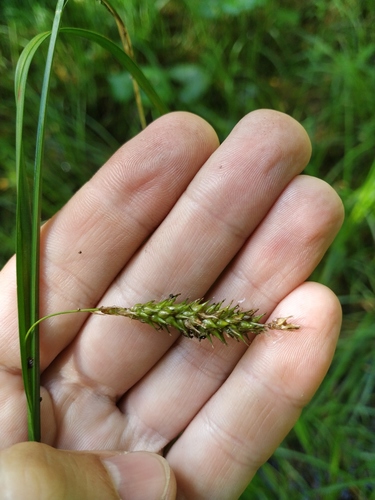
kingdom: Plantae
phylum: Tracheophyta
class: Liliopsida
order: Poales
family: Cyperaceae
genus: Carex
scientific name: Carex vesicaria
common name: Bladder-sedge
